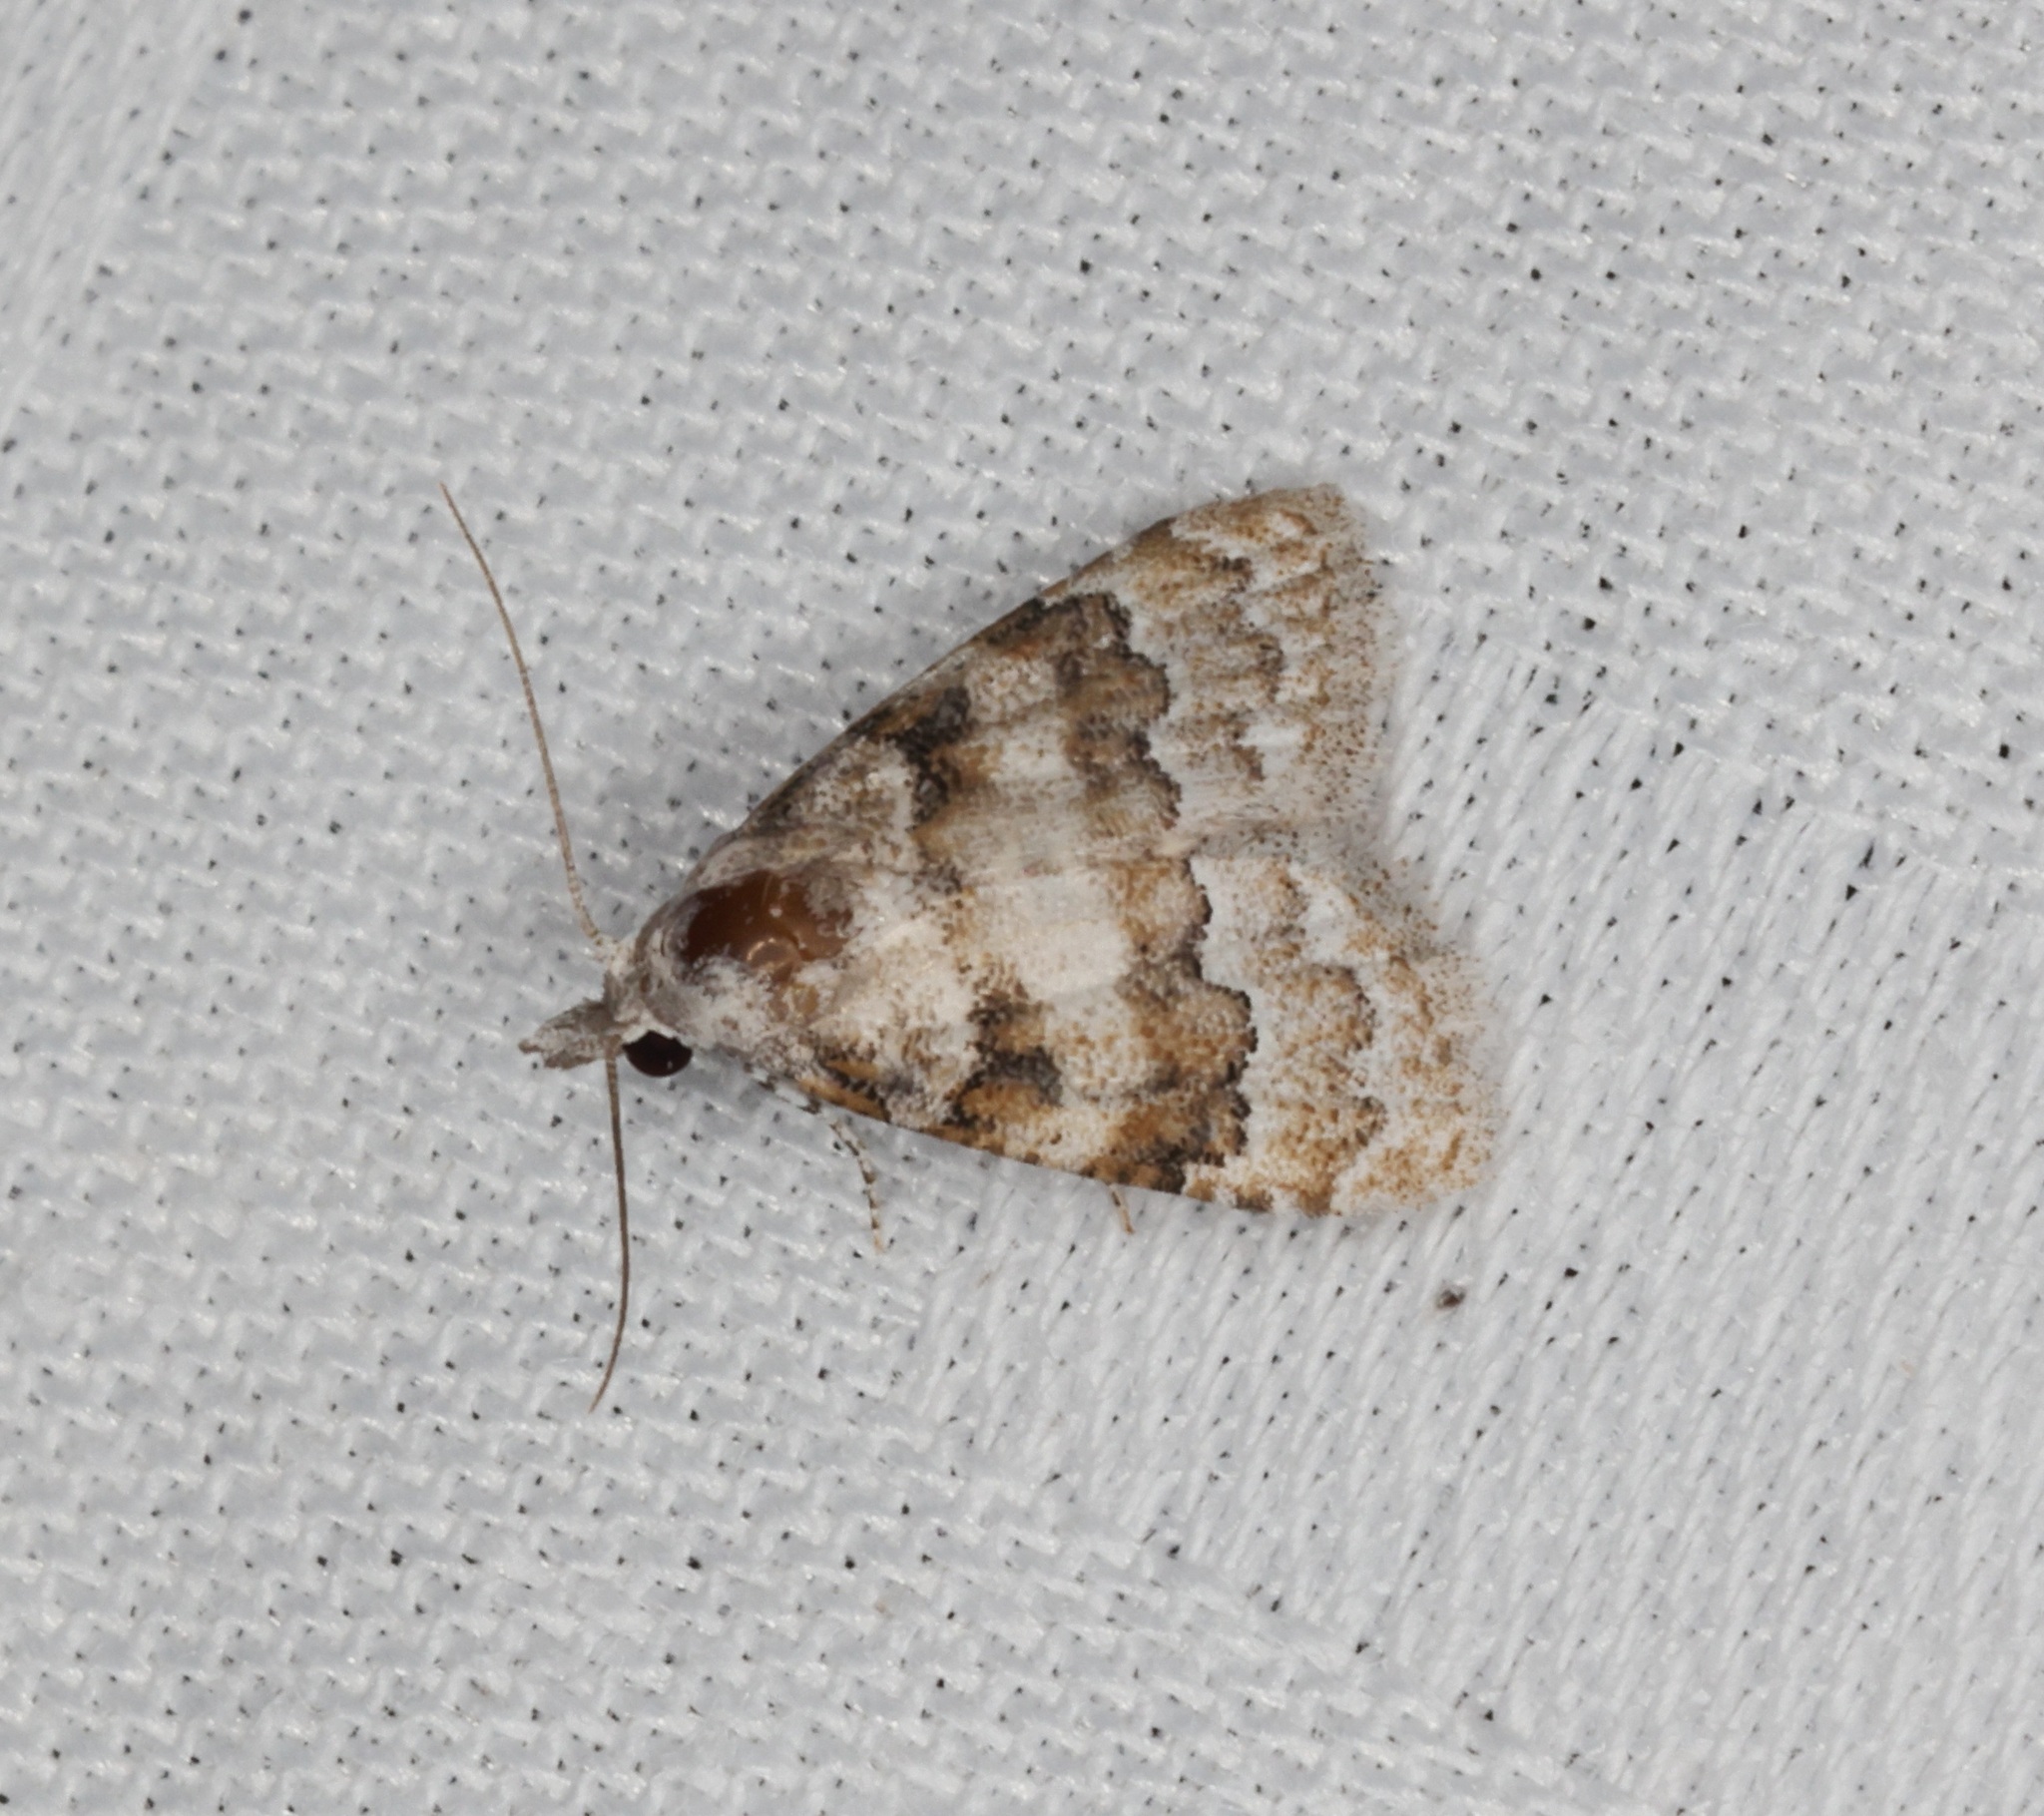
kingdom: Animalia
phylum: Arthropoda
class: Insecta
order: Lepidoptera
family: Nolidae
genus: Nola
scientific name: Nola bifascialis
